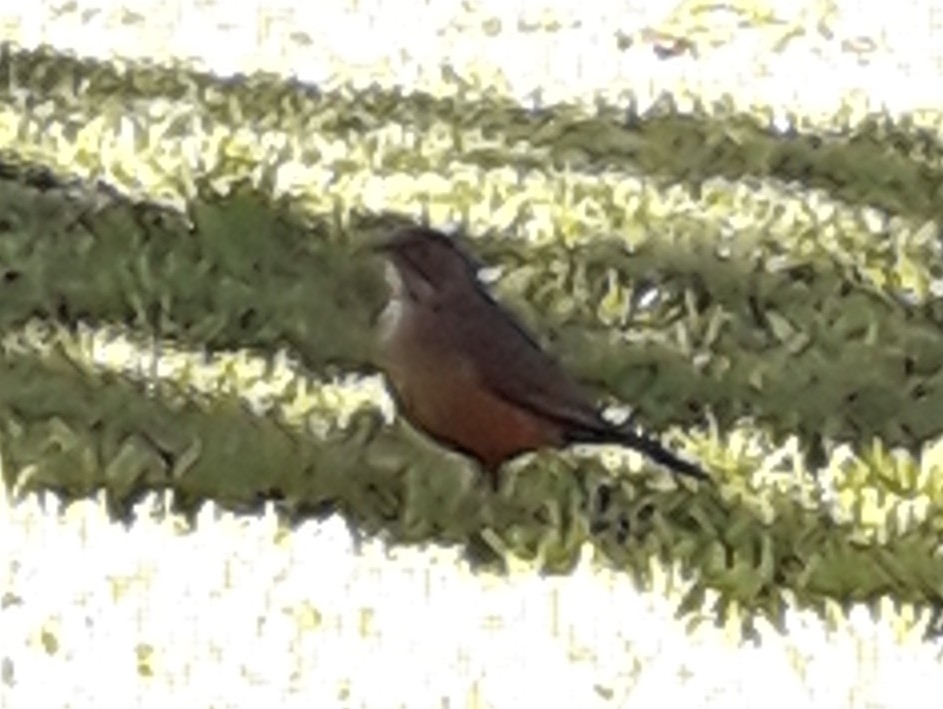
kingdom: Animalia
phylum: Chordata
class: Aves
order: Passeriformes
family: Turdidae
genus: Turdus
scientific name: Turdus rufiventris
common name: Rufous-bellied thrush
